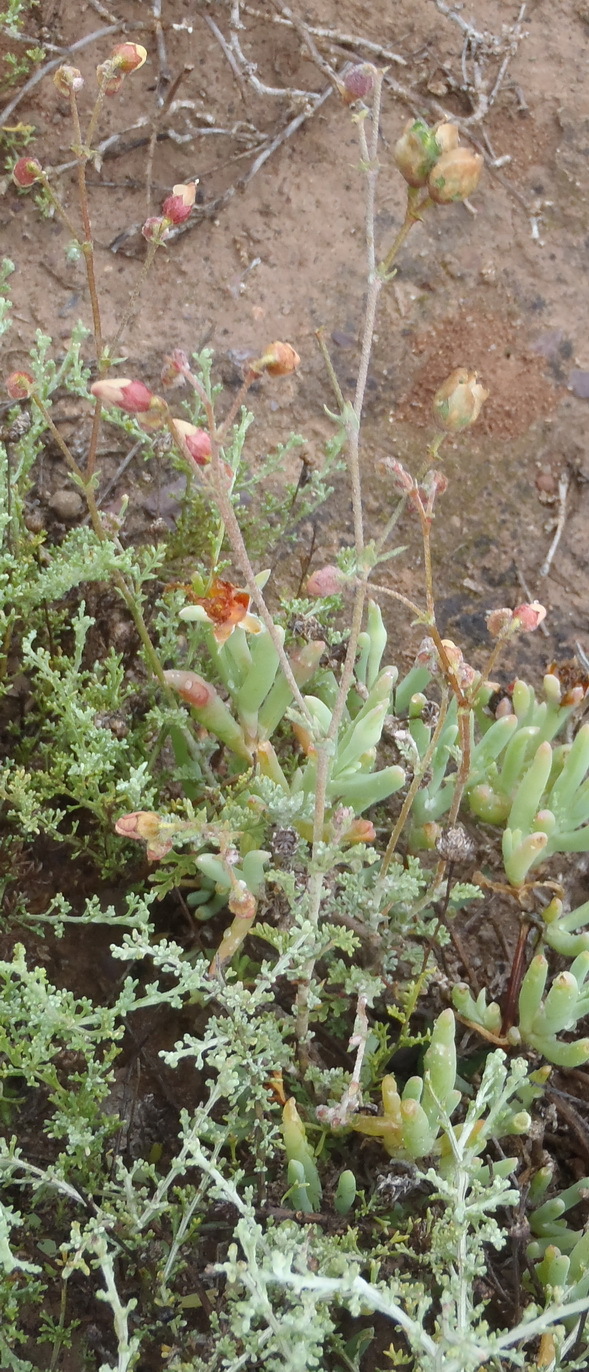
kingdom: Plantae
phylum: Tracheophyta
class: Magnoliopsida
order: Malvales
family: Malvaceae
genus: Hermannia
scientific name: Hermannia pulverata
